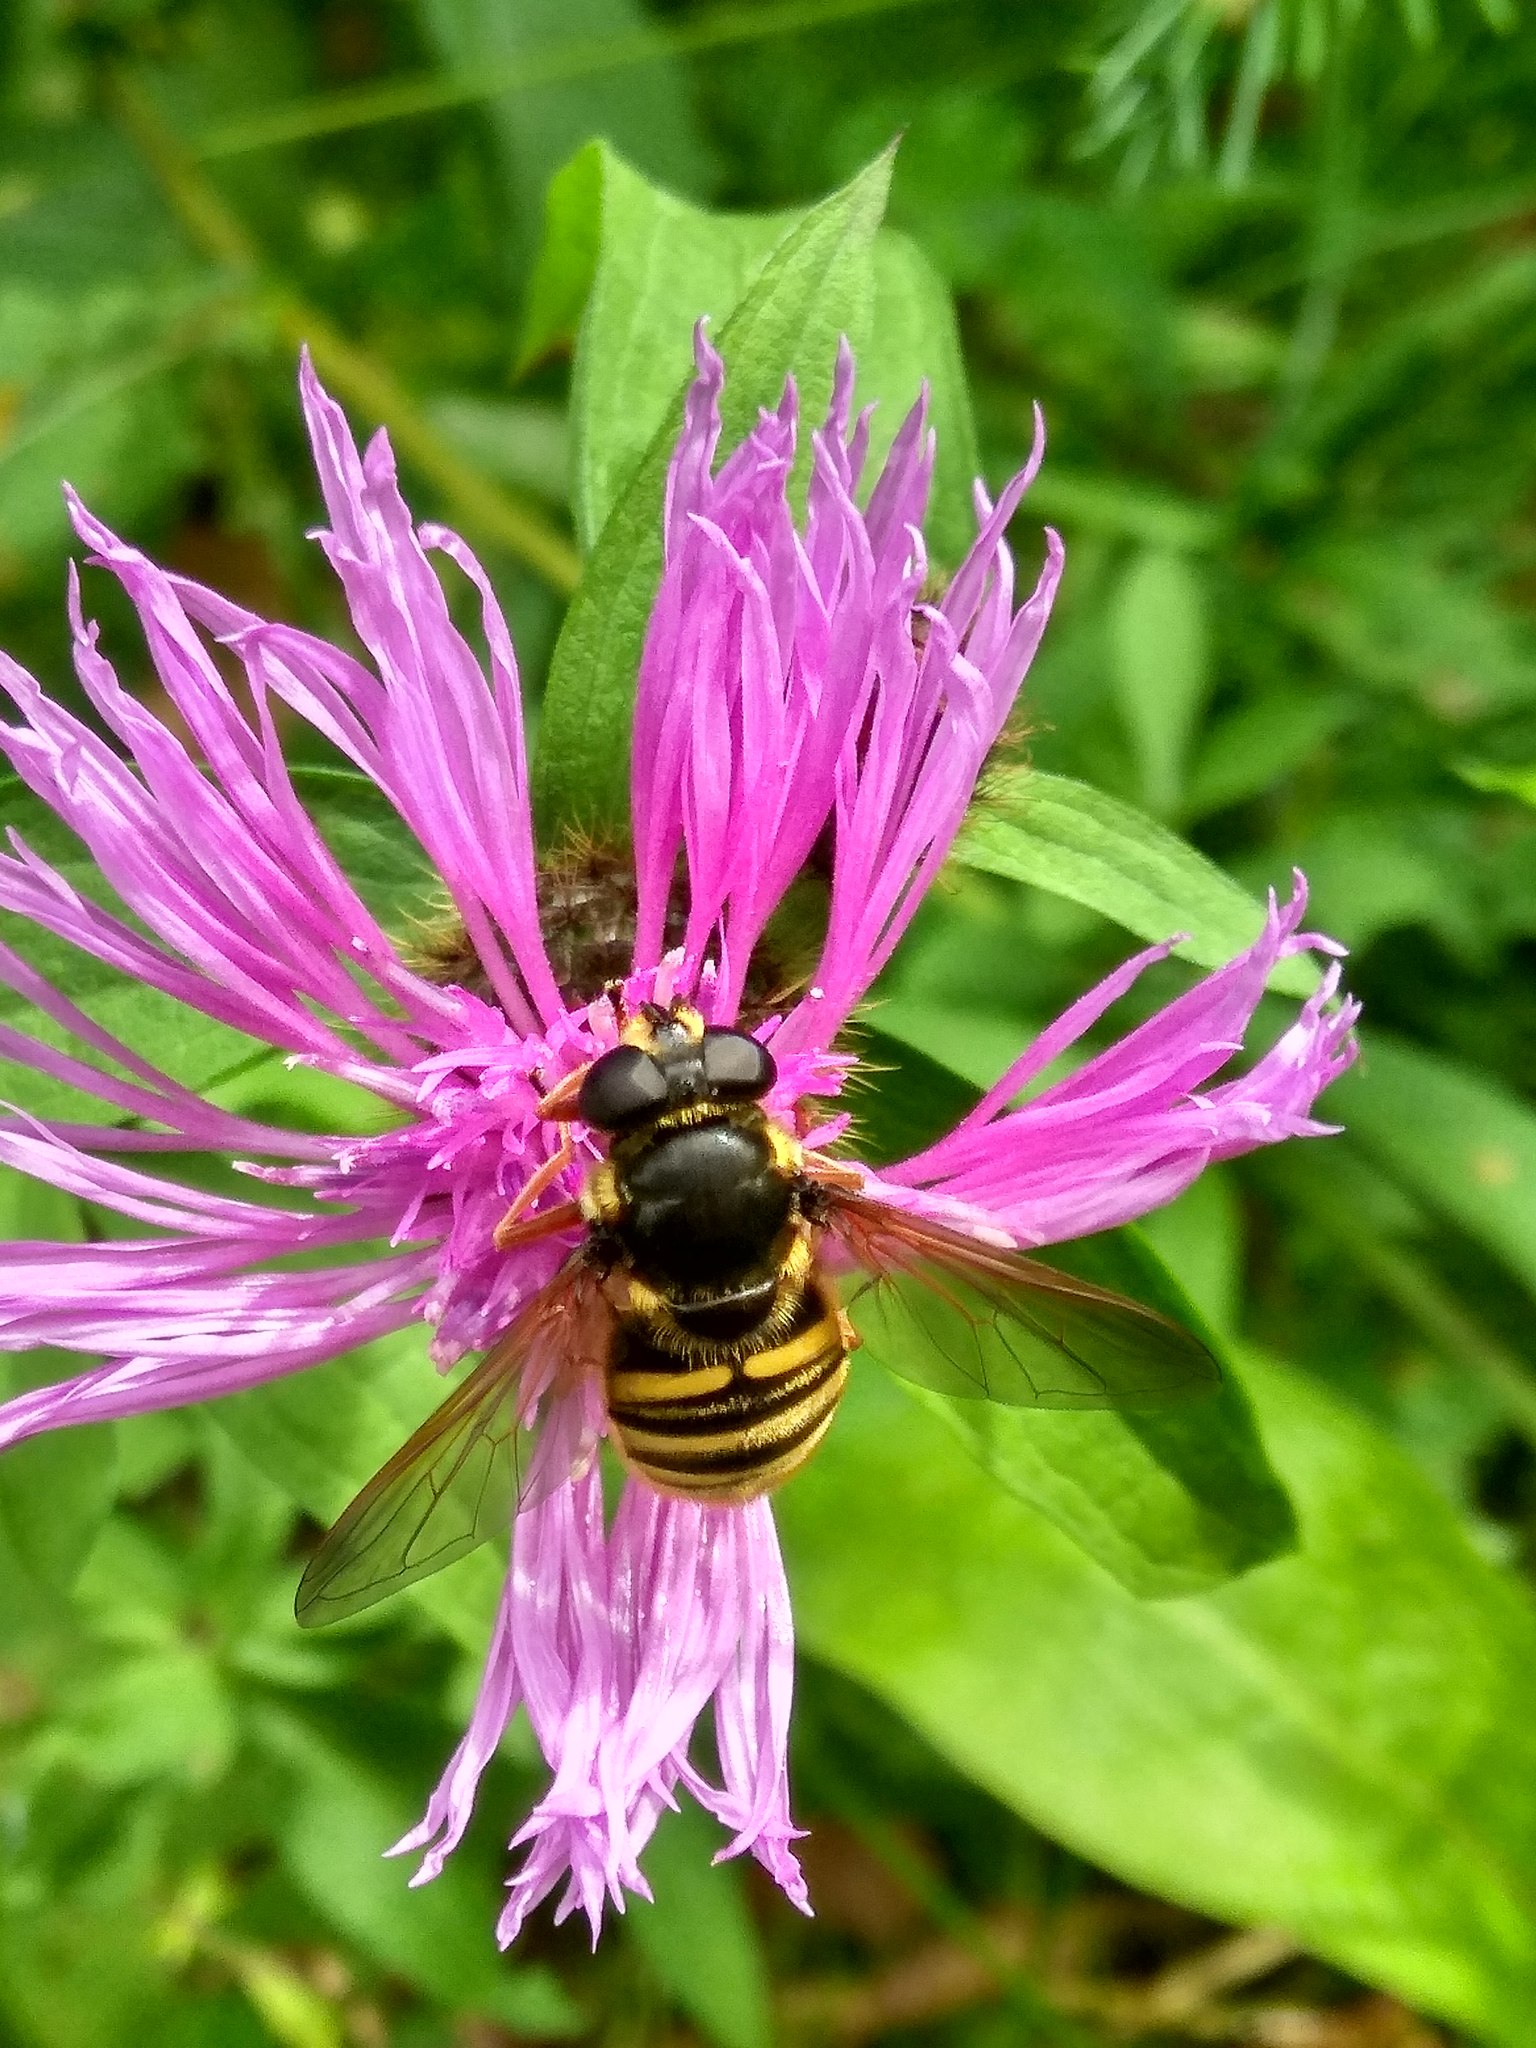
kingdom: Animalia
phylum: Arthropoda
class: Insecta
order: Diptera
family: Syrphidae
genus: Sericomyia
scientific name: Sericomyia silentis
